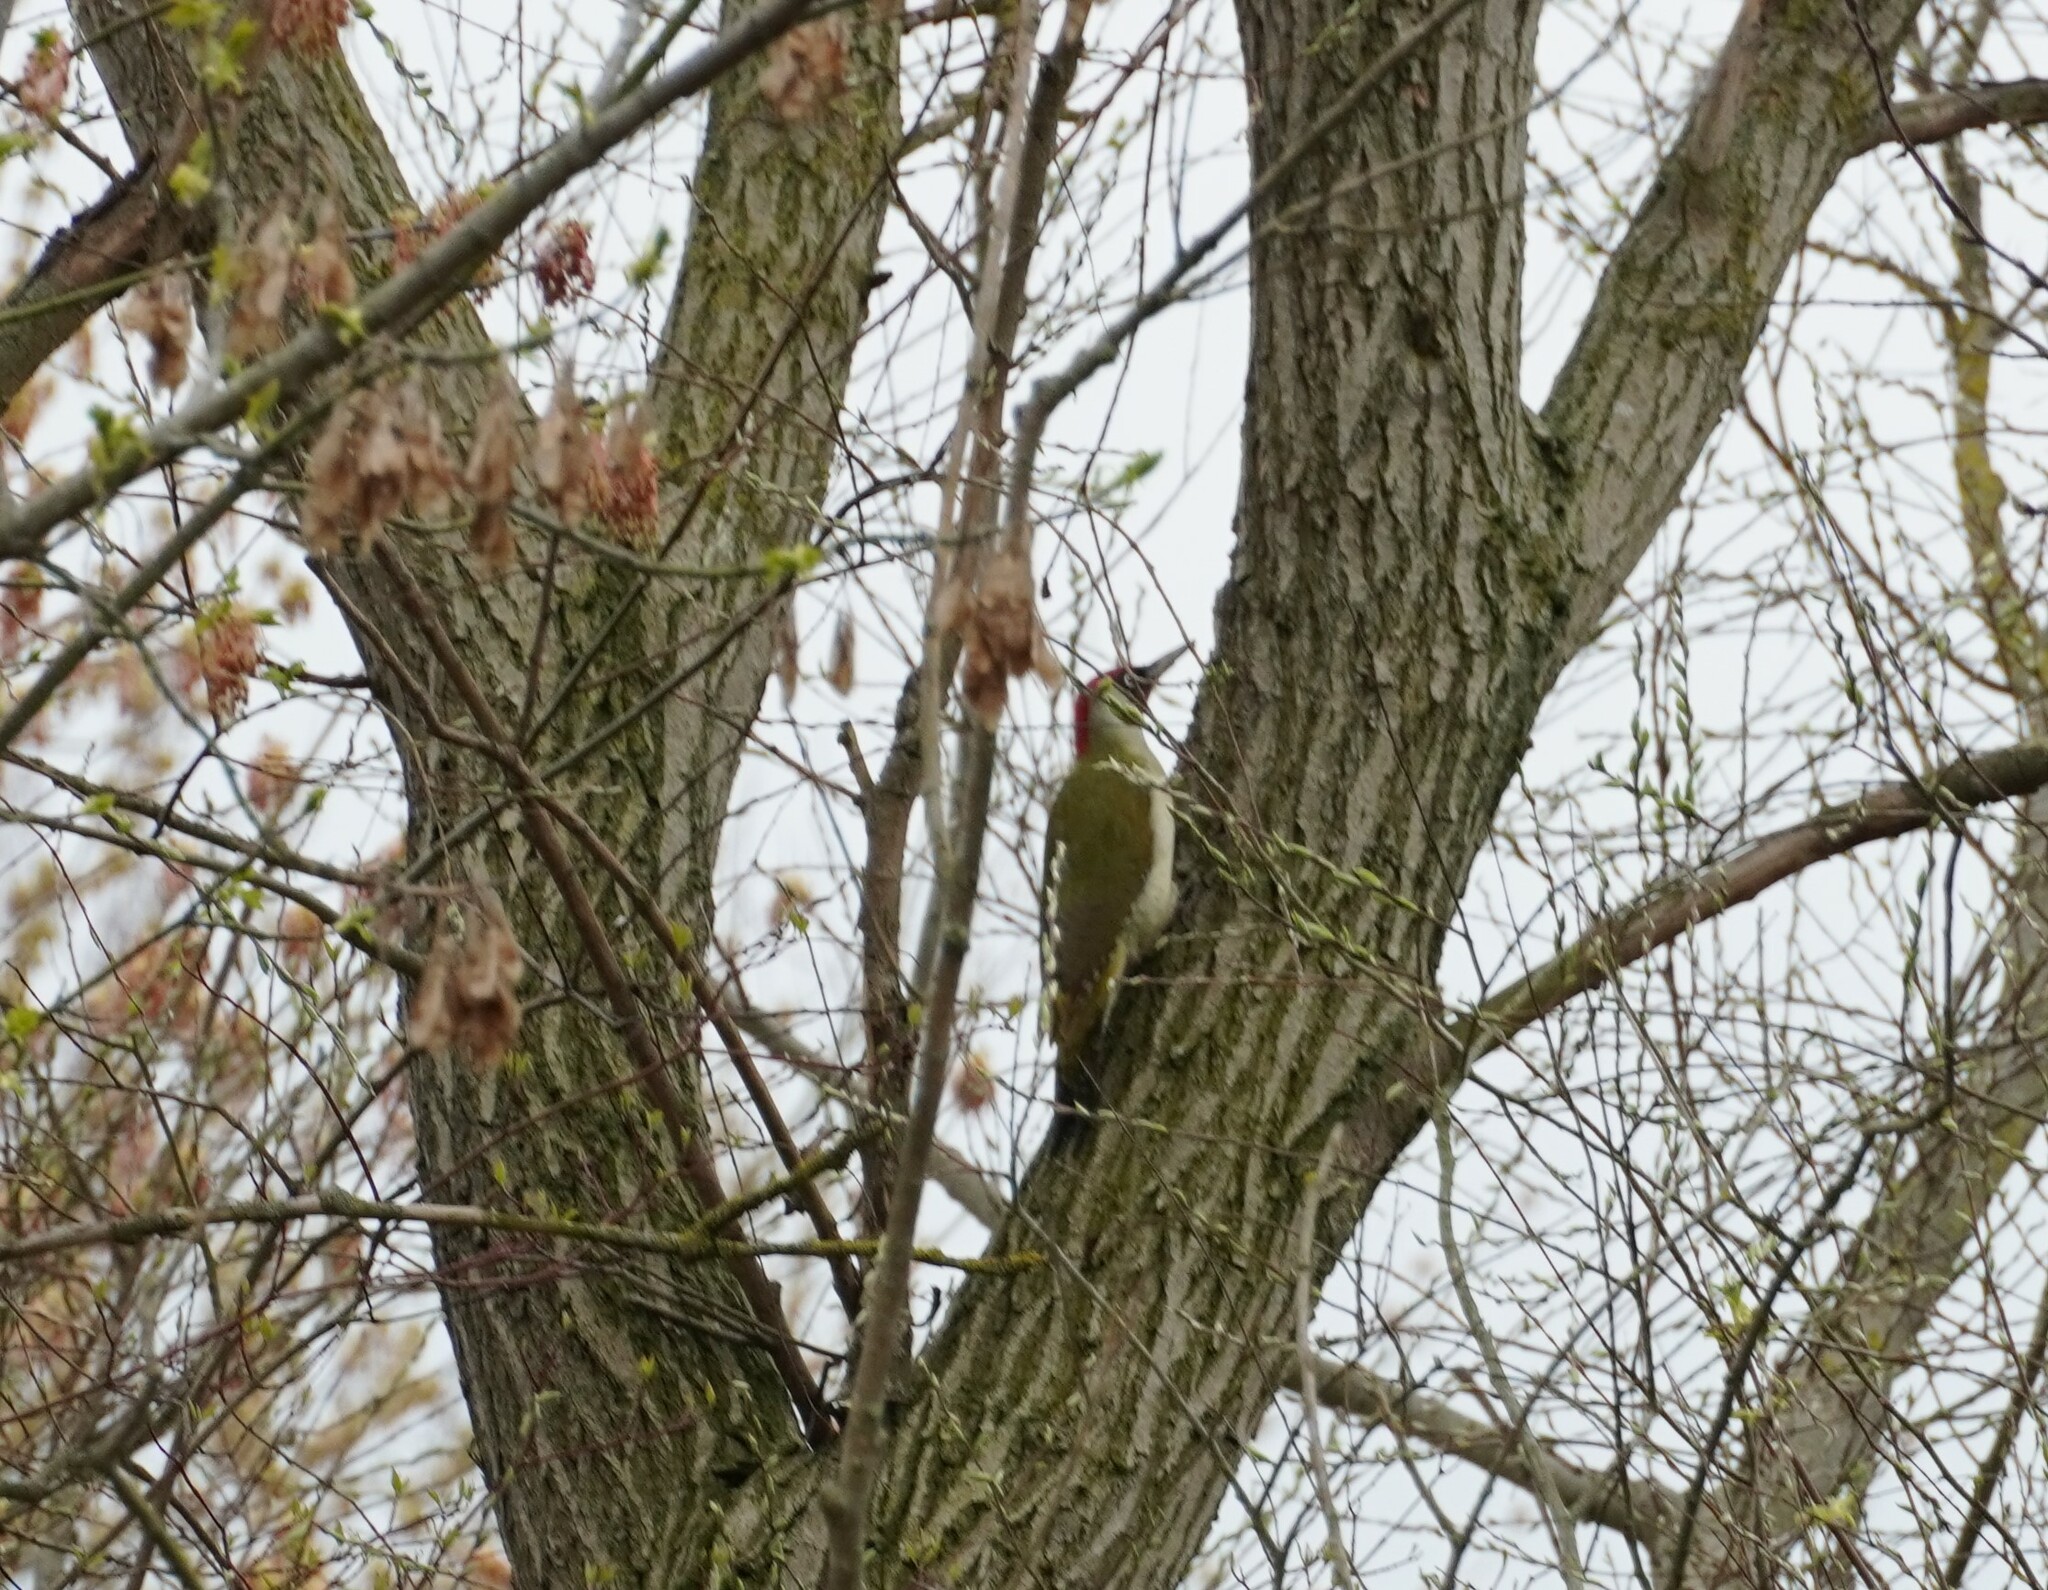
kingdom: Animalia
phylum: Chordata
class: Aves
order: Piciformes
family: Picidae
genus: Picus
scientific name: Picus viridis
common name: European green woodpecker
